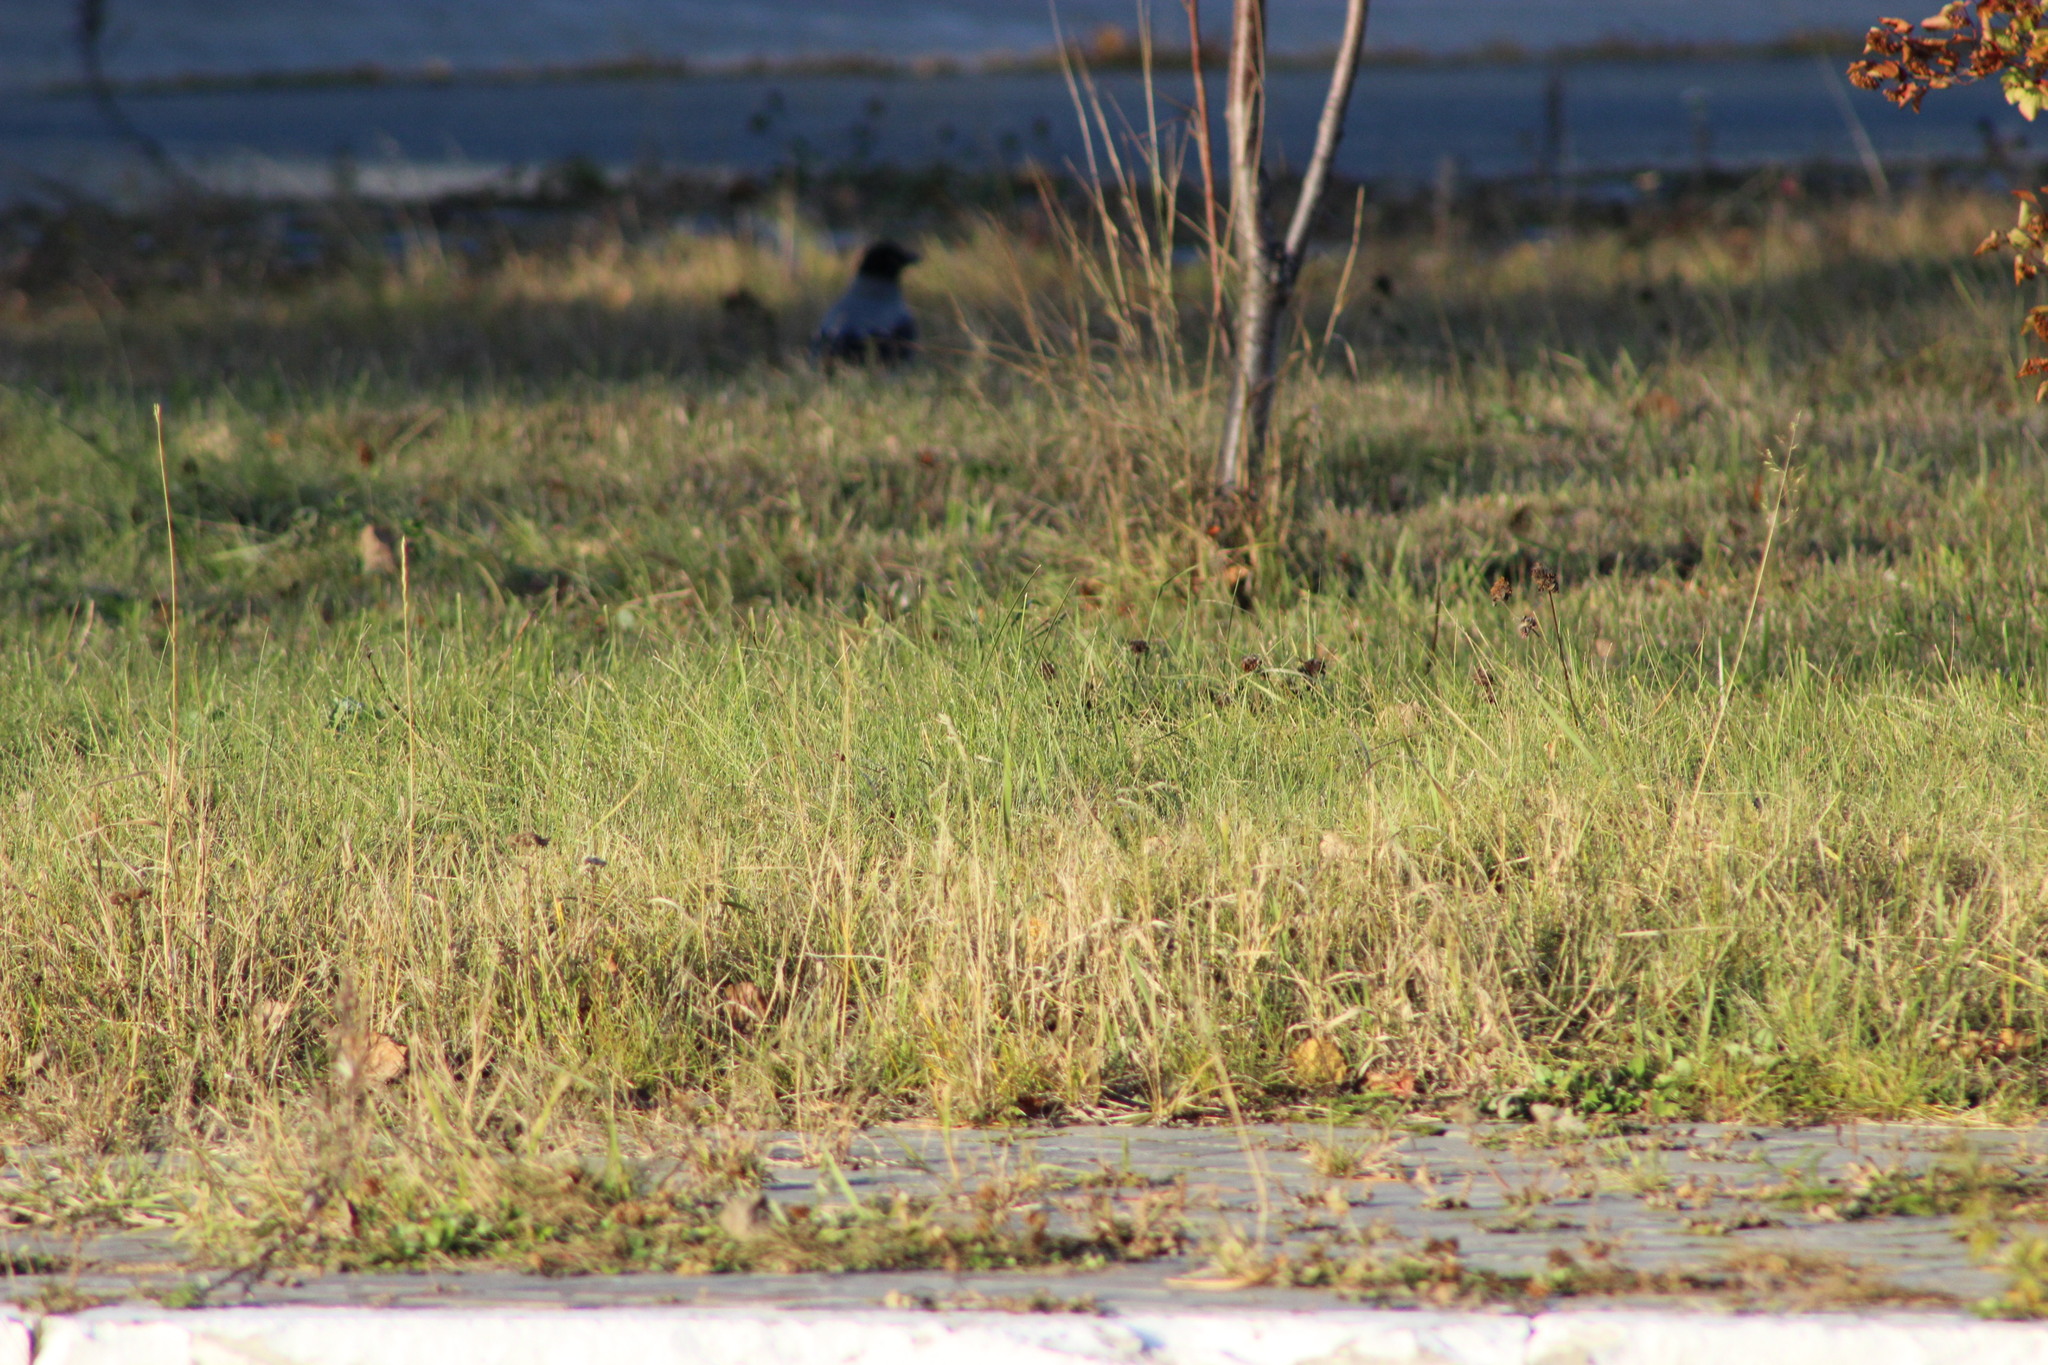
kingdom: Animalia
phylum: Chordata
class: Aves
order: Passeriformes
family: Corvidae
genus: Corvus
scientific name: Corvus cornix
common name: Hooded crow
